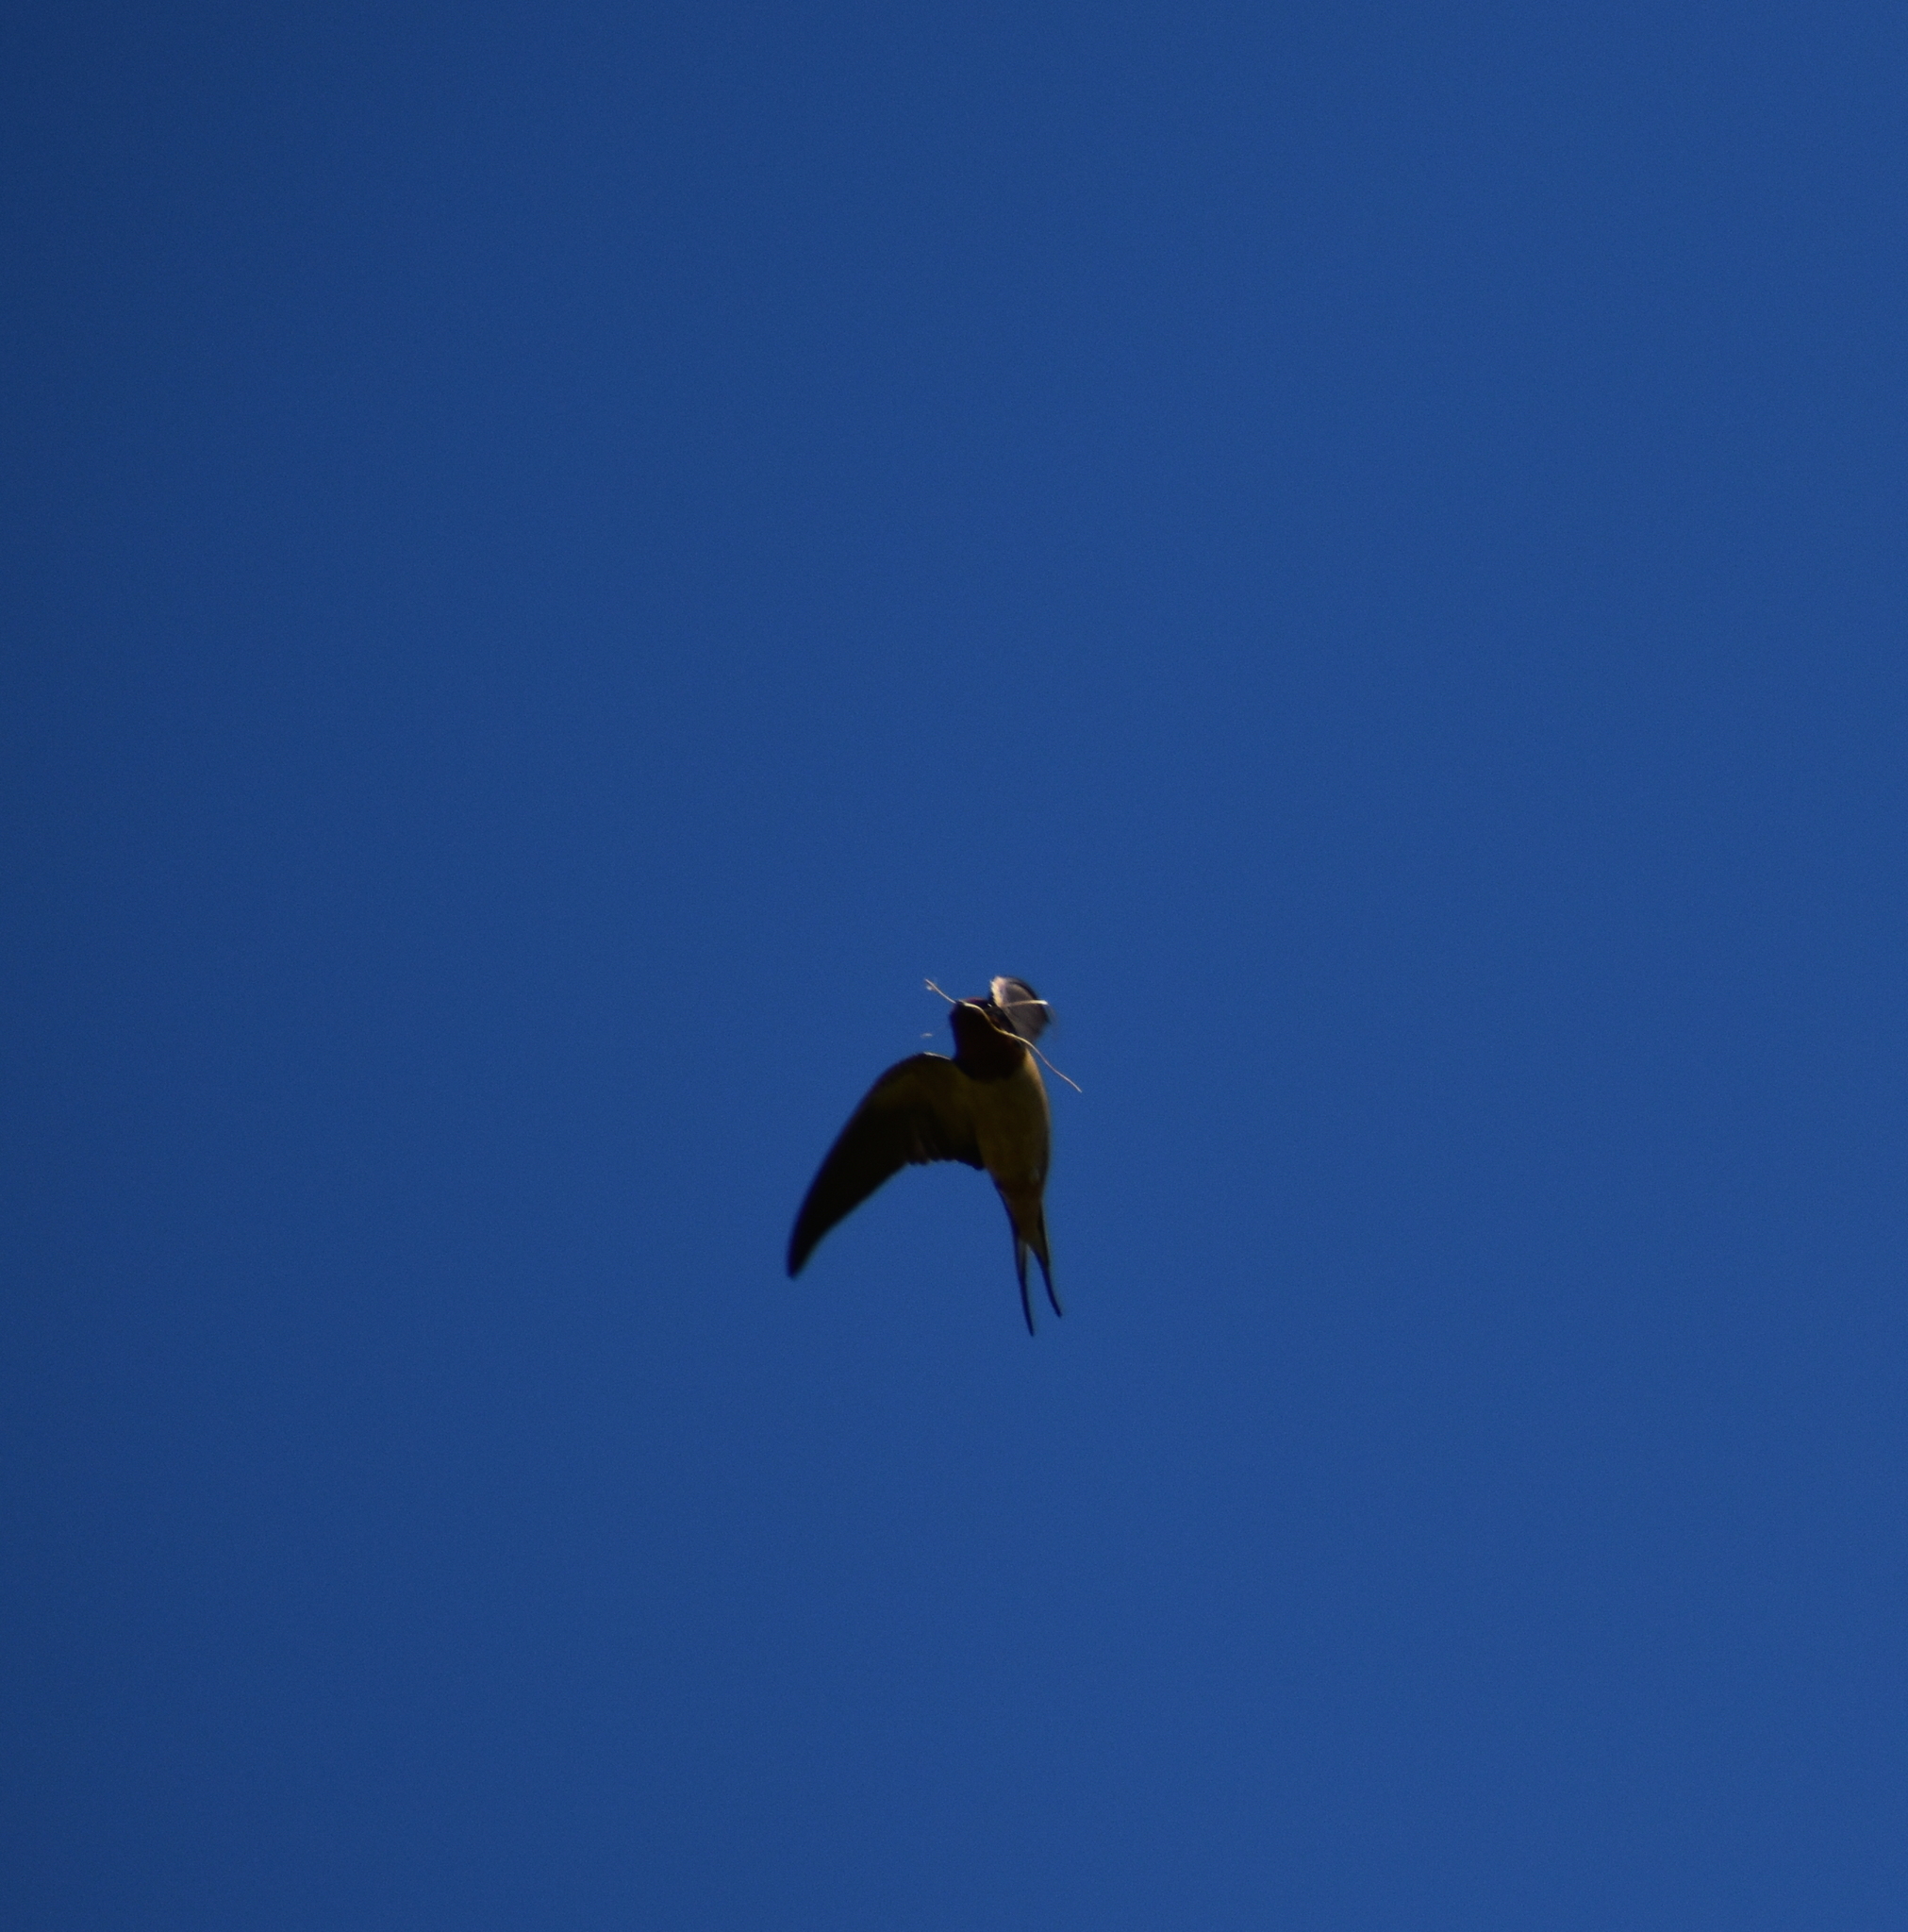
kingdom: Animalia
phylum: Chordata
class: Aves
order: Passeriformes
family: Hirundinidae
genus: Hirundo
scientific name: Hirundo rustica
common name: Barn swallow
